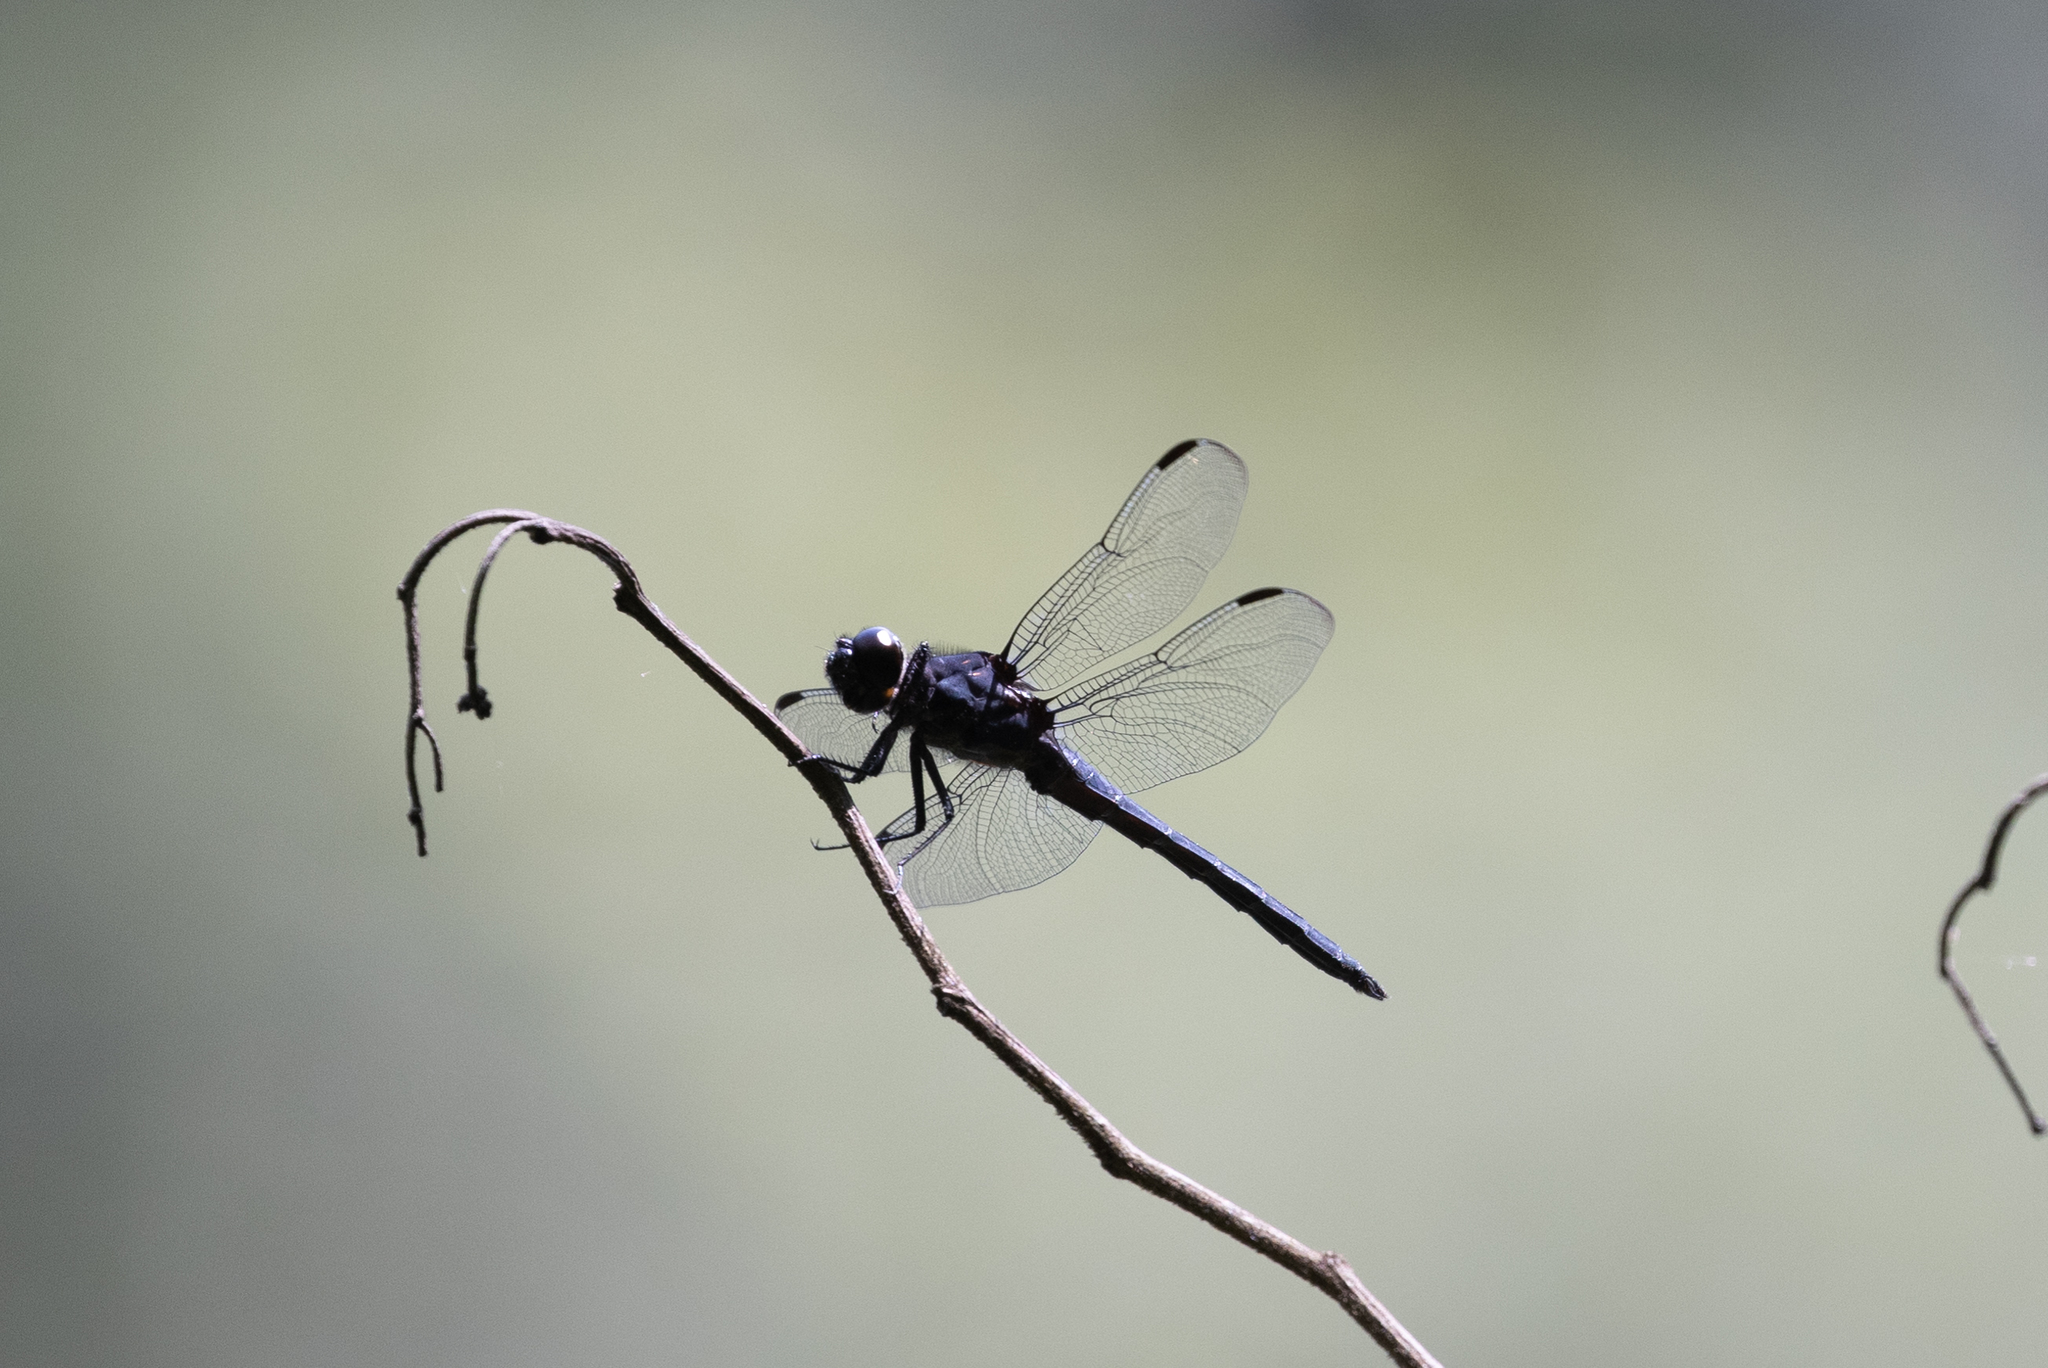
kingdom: Animalia
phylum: Arthropoda
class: Insecta
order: Odonata
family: Libellulidae
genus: Libellula
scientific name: Libellula incesta
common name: Slaty skimmer
